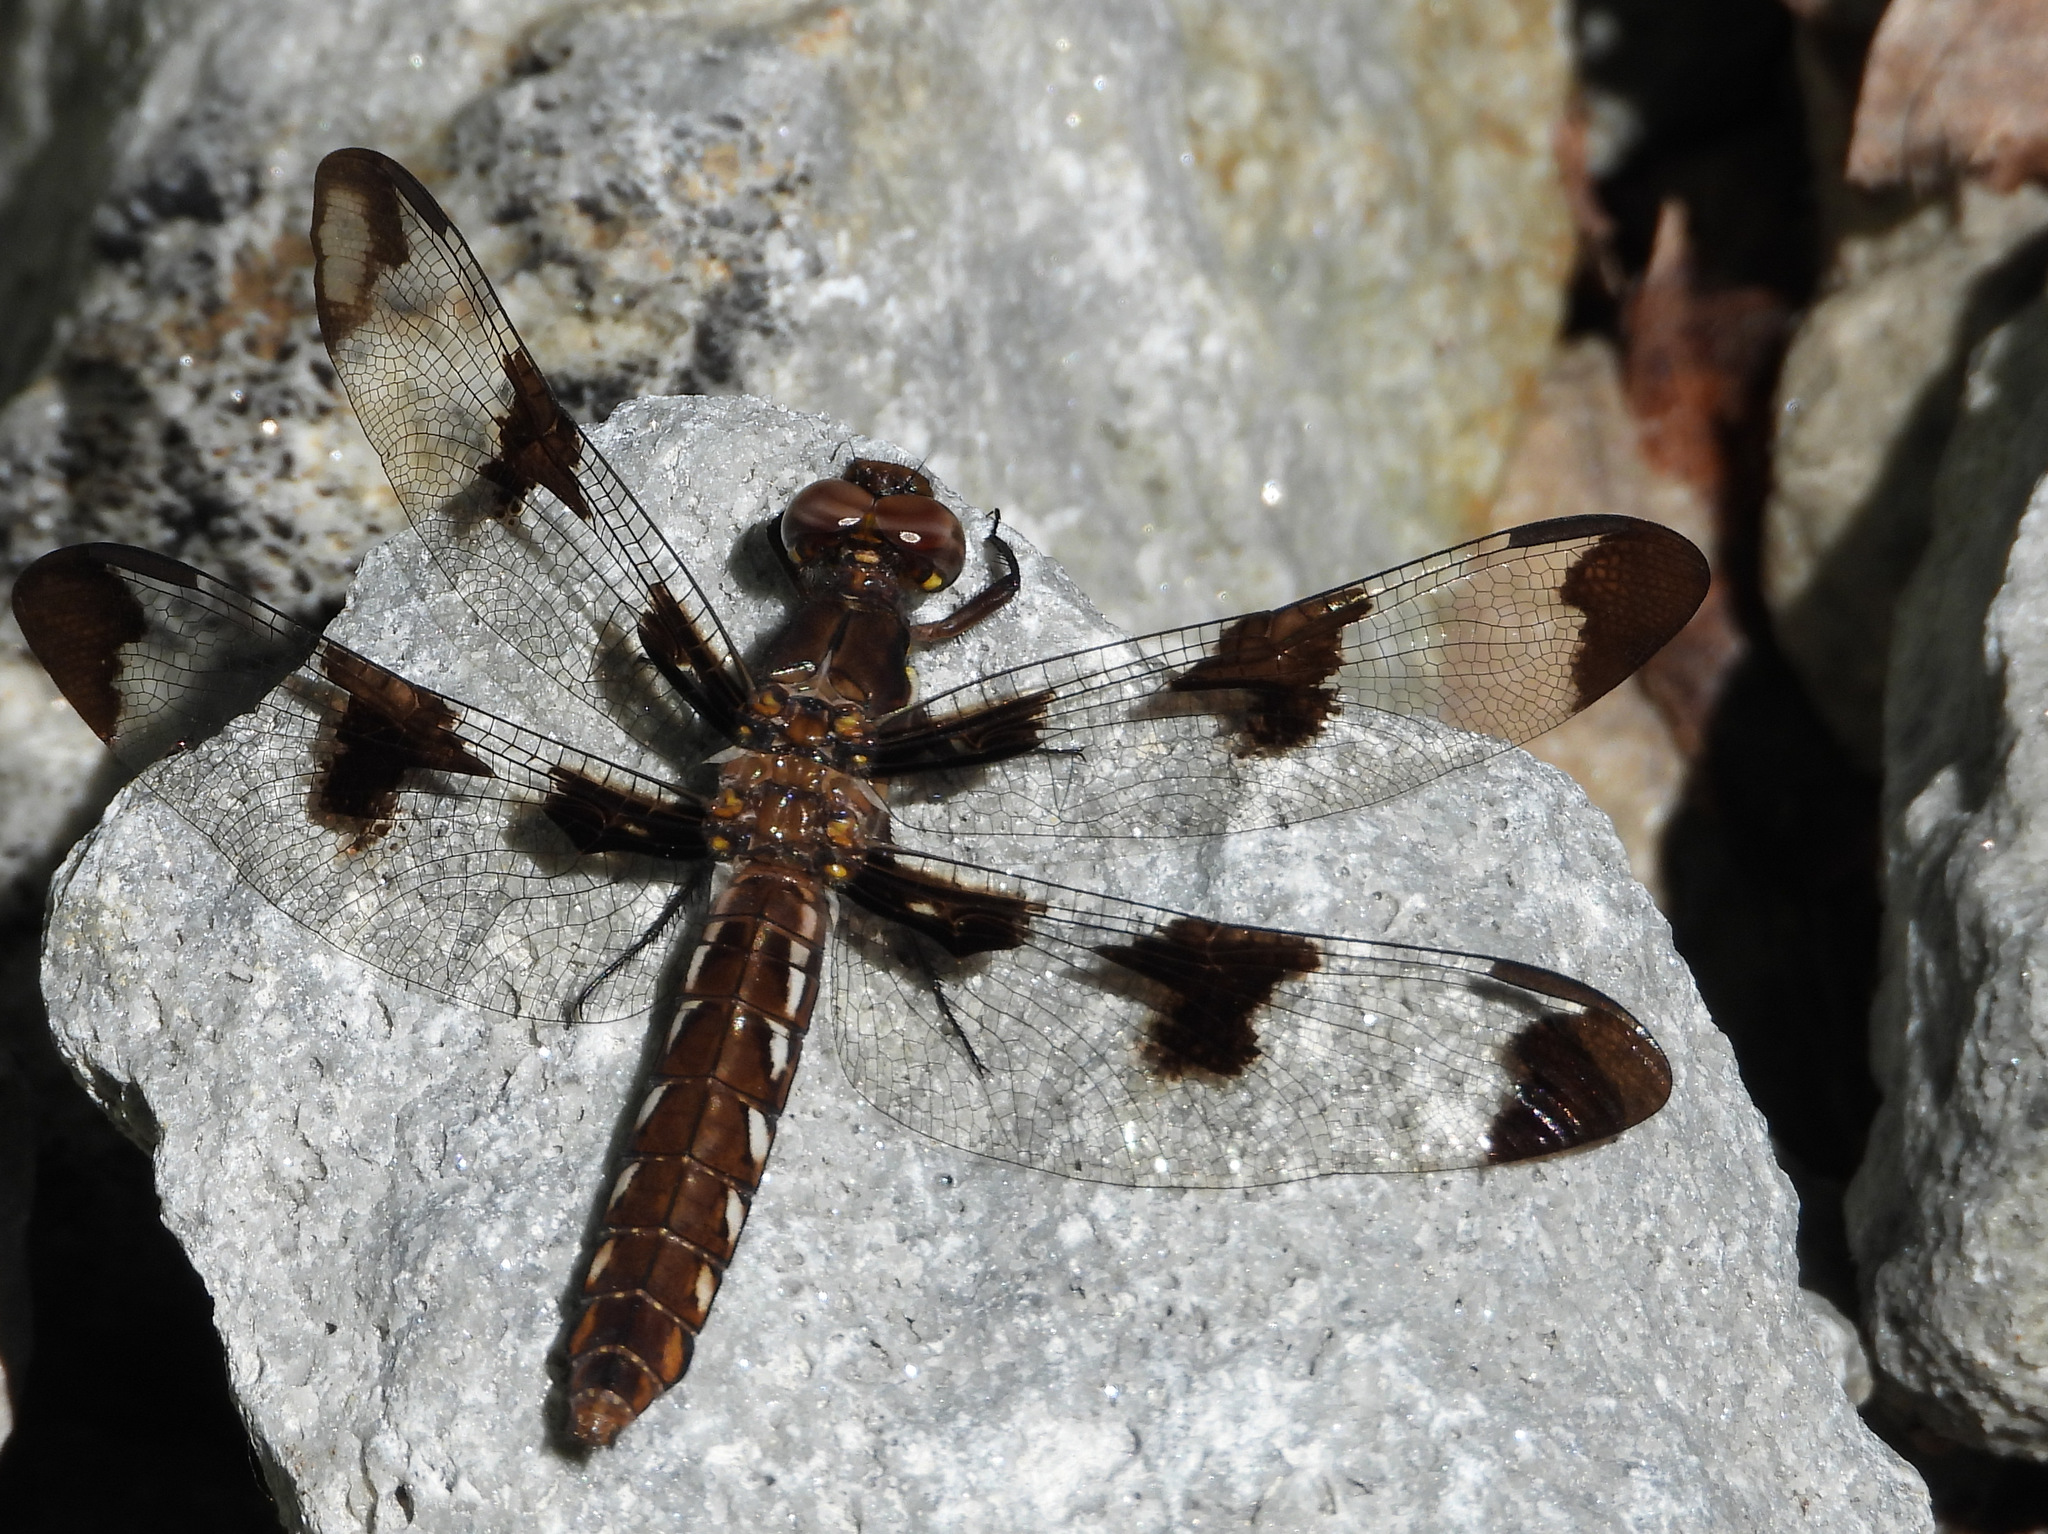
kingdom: Animalia
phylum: Arthropoda
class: Insecta
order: Odonata
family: Libellulidae
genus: Plathemis
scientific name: Plathemis lydia
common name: Common whitetail
